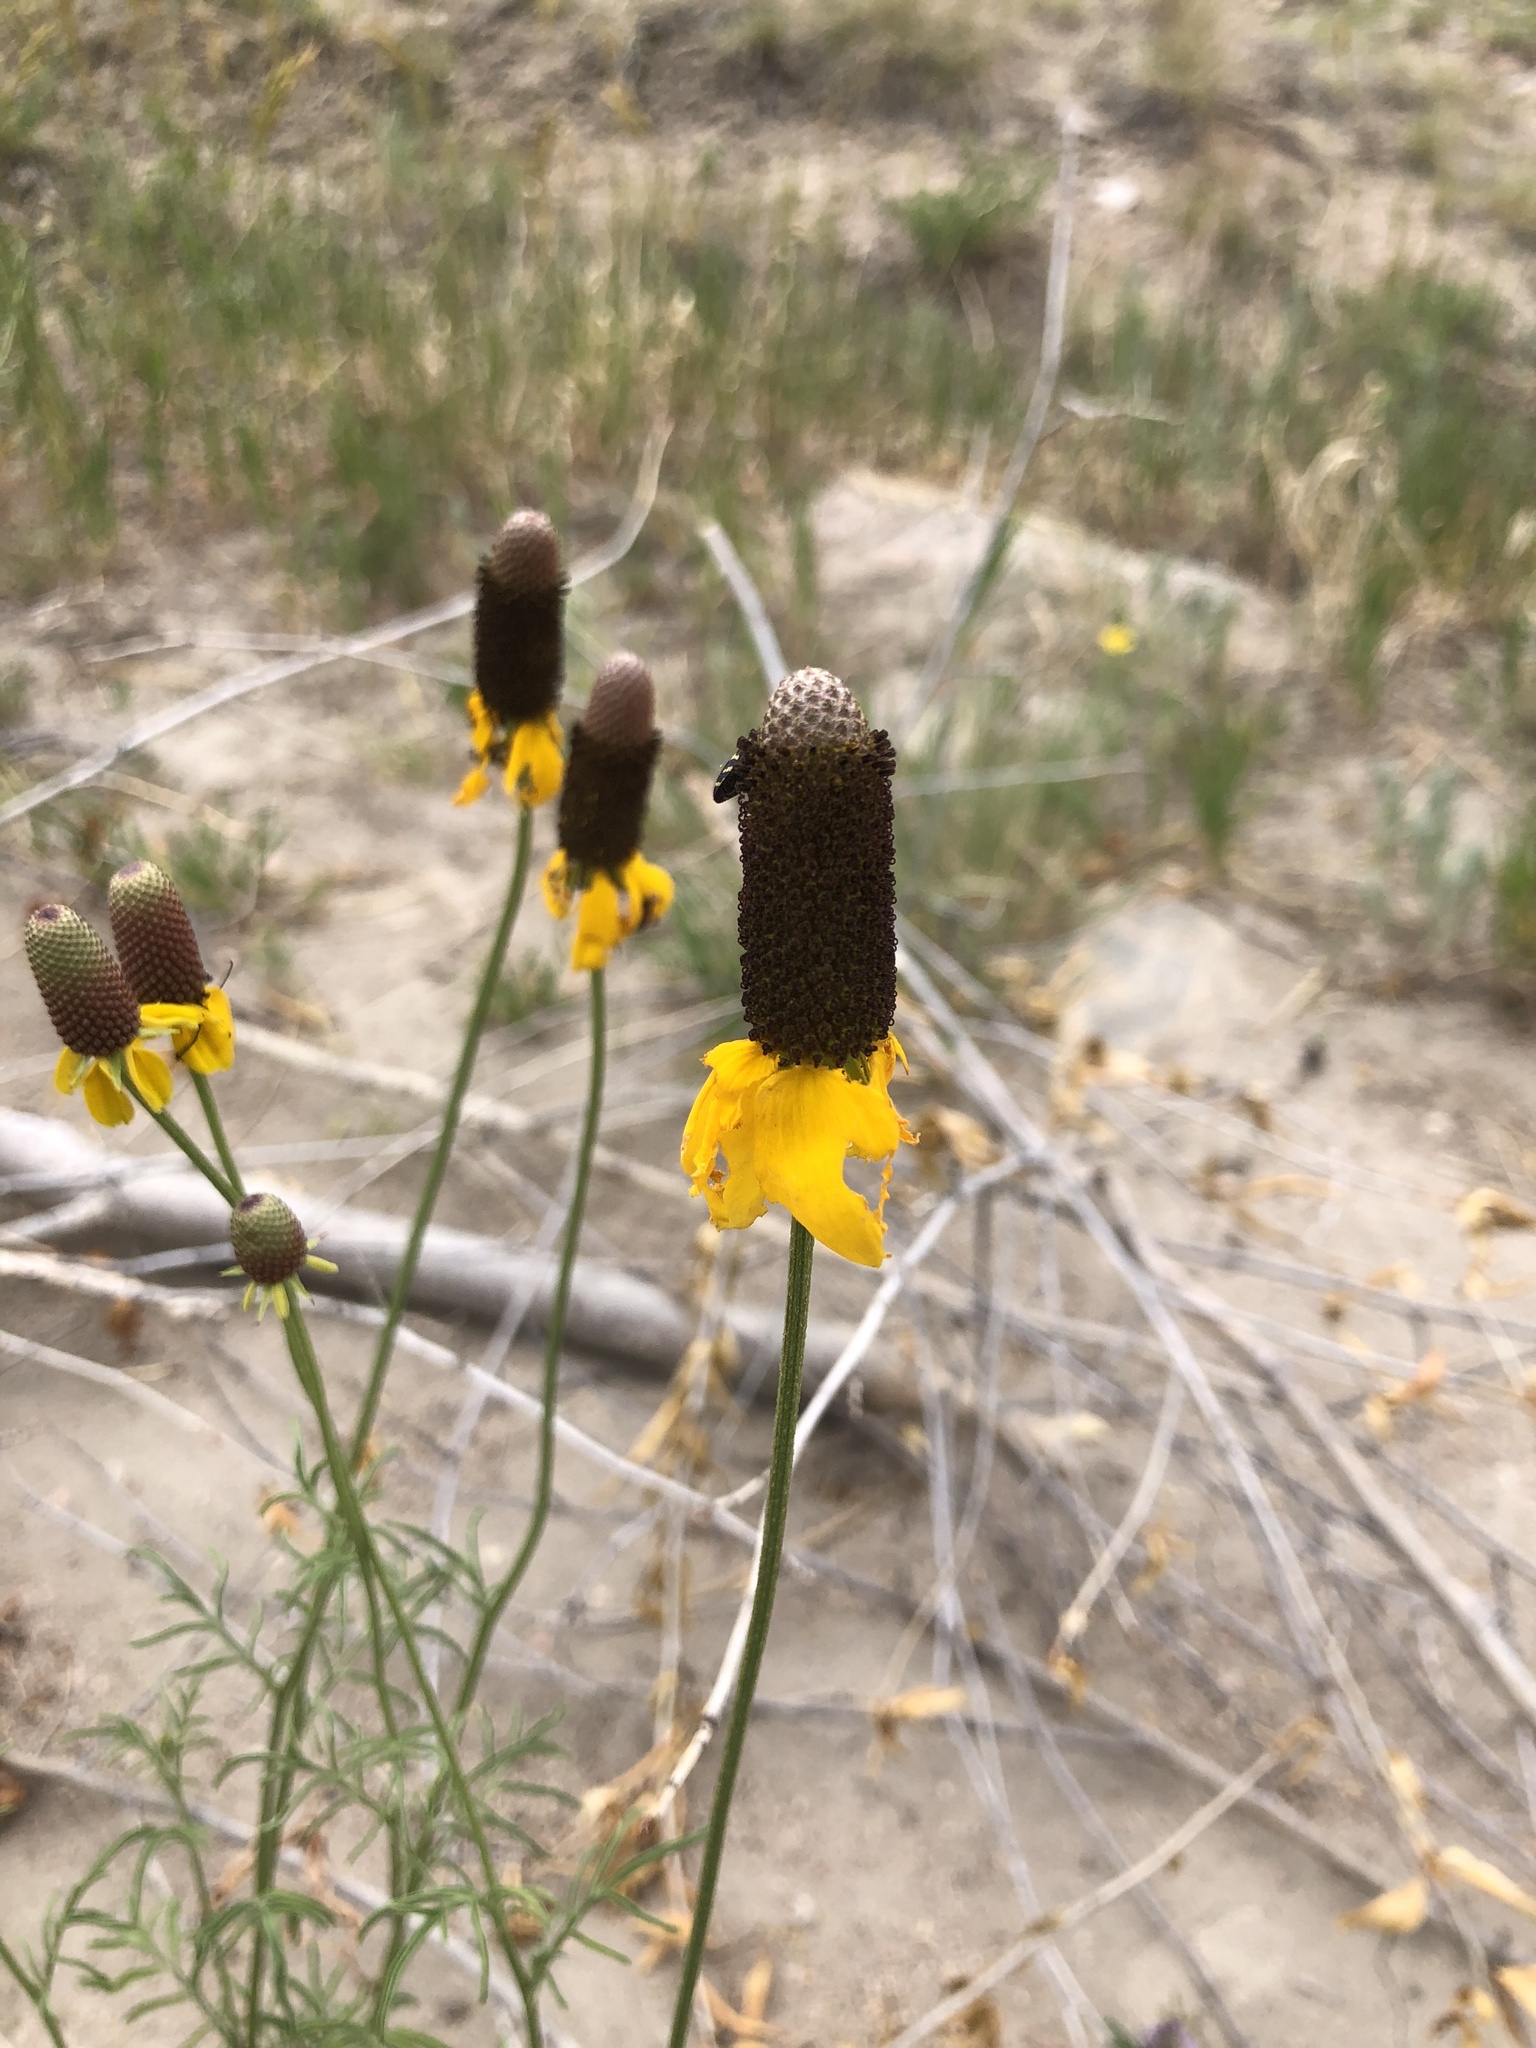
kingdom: Plantae
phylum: Tracheophyta
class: Magnoliopsida
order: Asterales
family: Asteraceae
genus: Ratibida
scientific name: Ratibida columnifera
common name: Prairie coneflower
